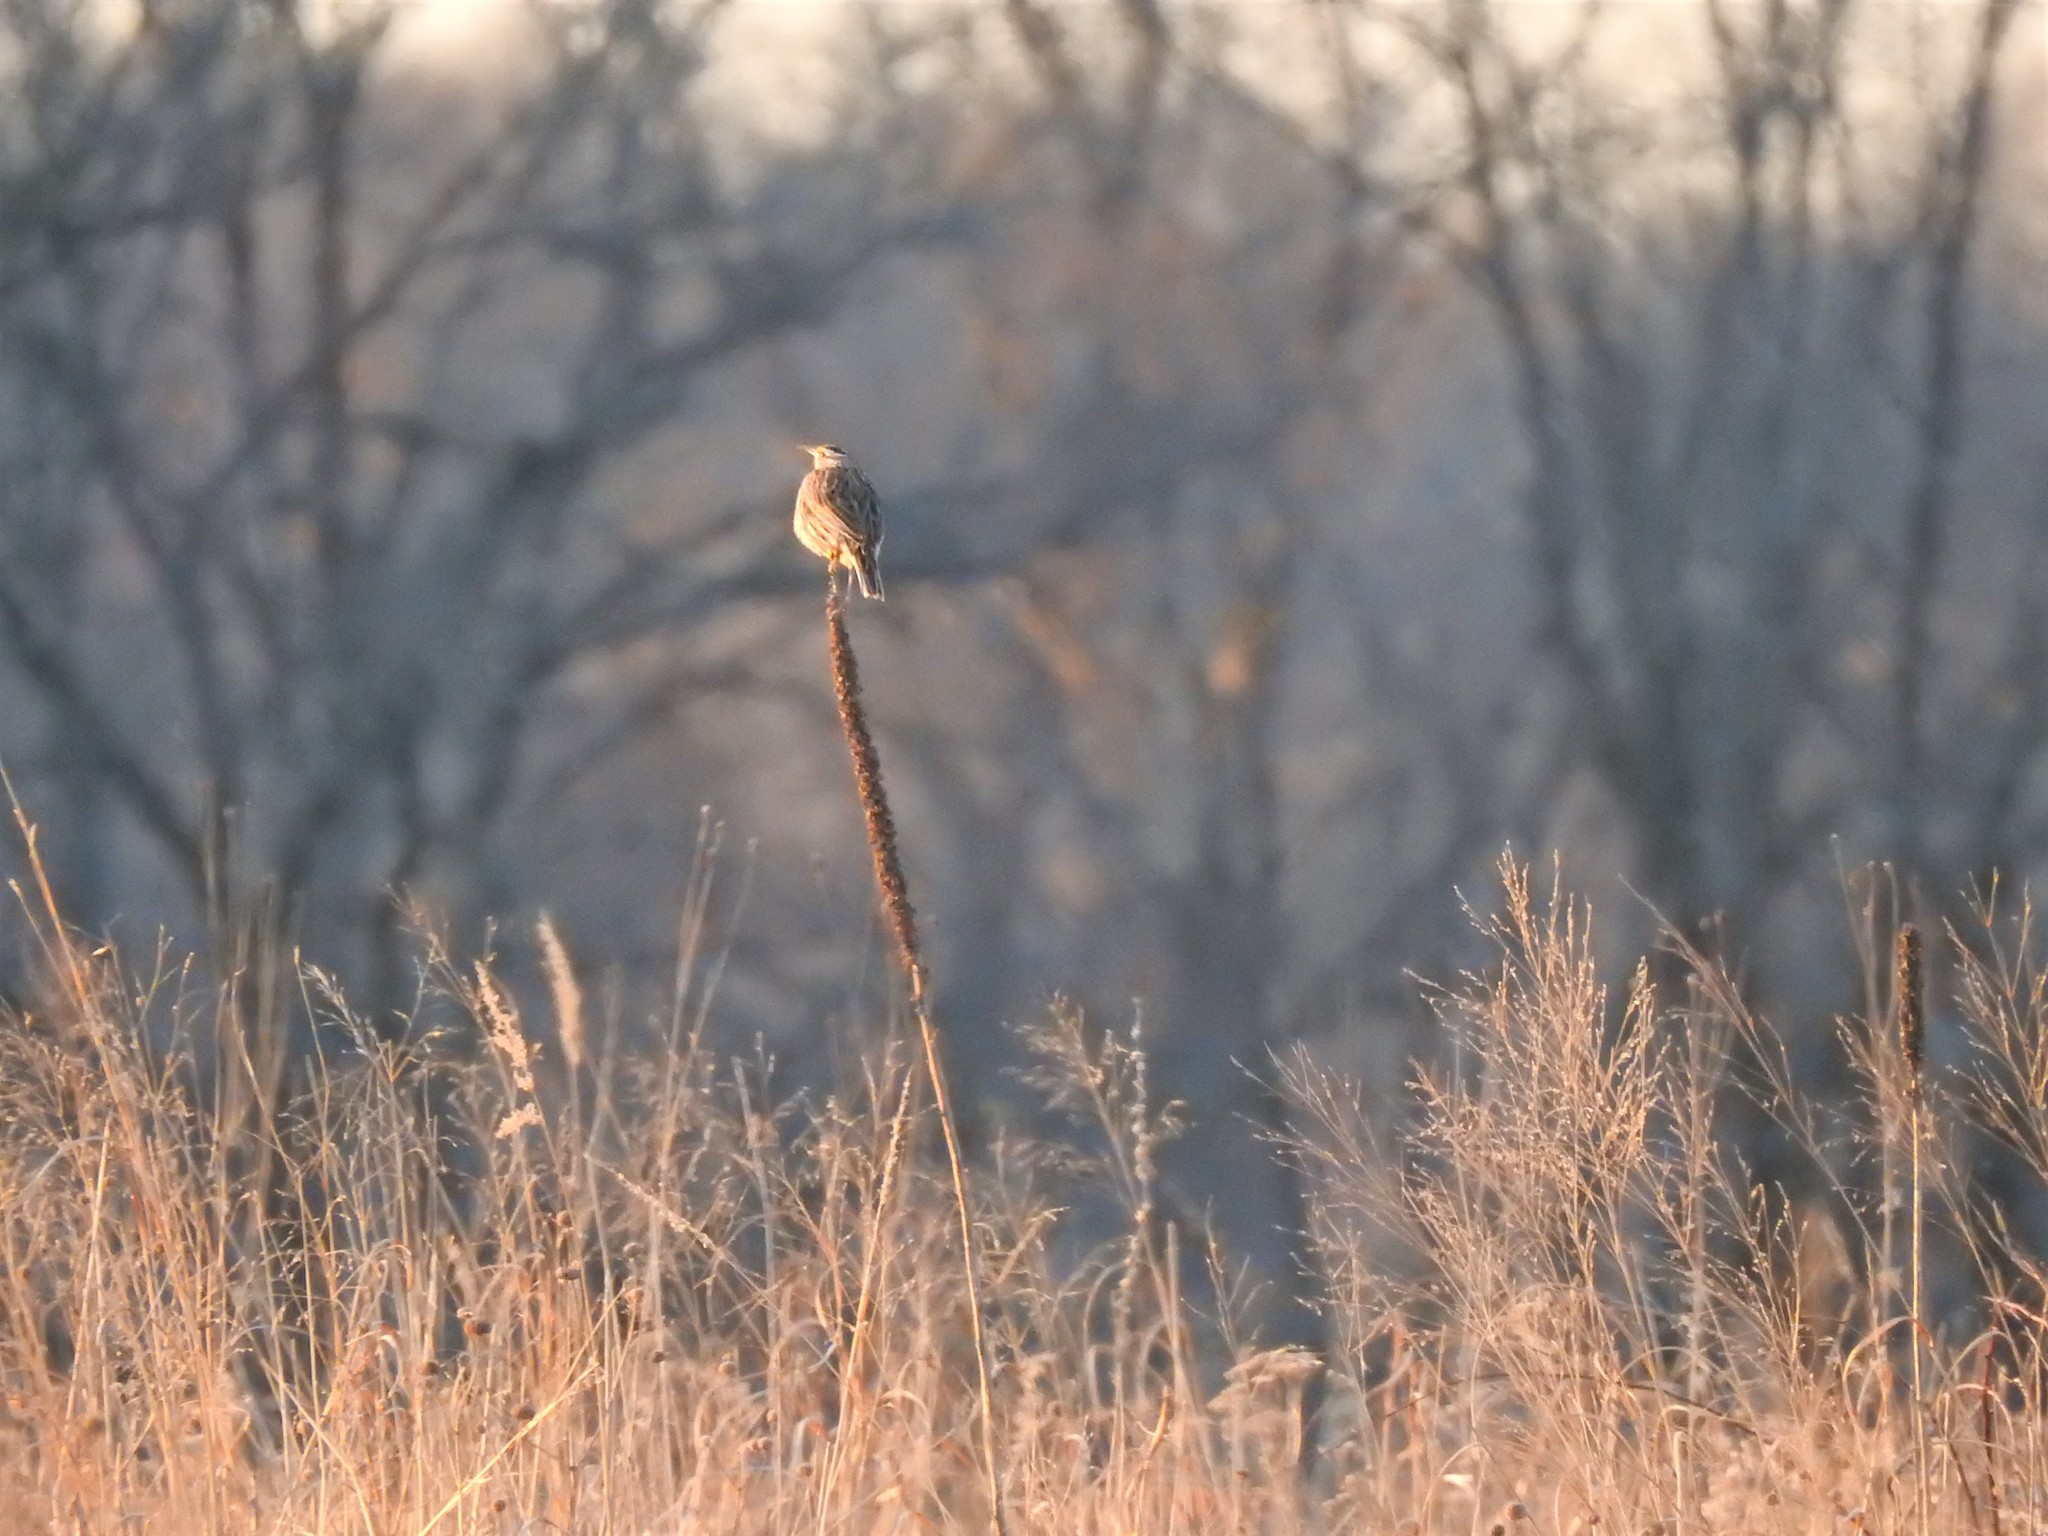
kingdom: Animalia
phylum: Chordata
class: Aves
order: Passeriformes
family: Icteridae
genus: Sturnella
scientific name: Sturnella magna
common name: Eastern meadowlark
